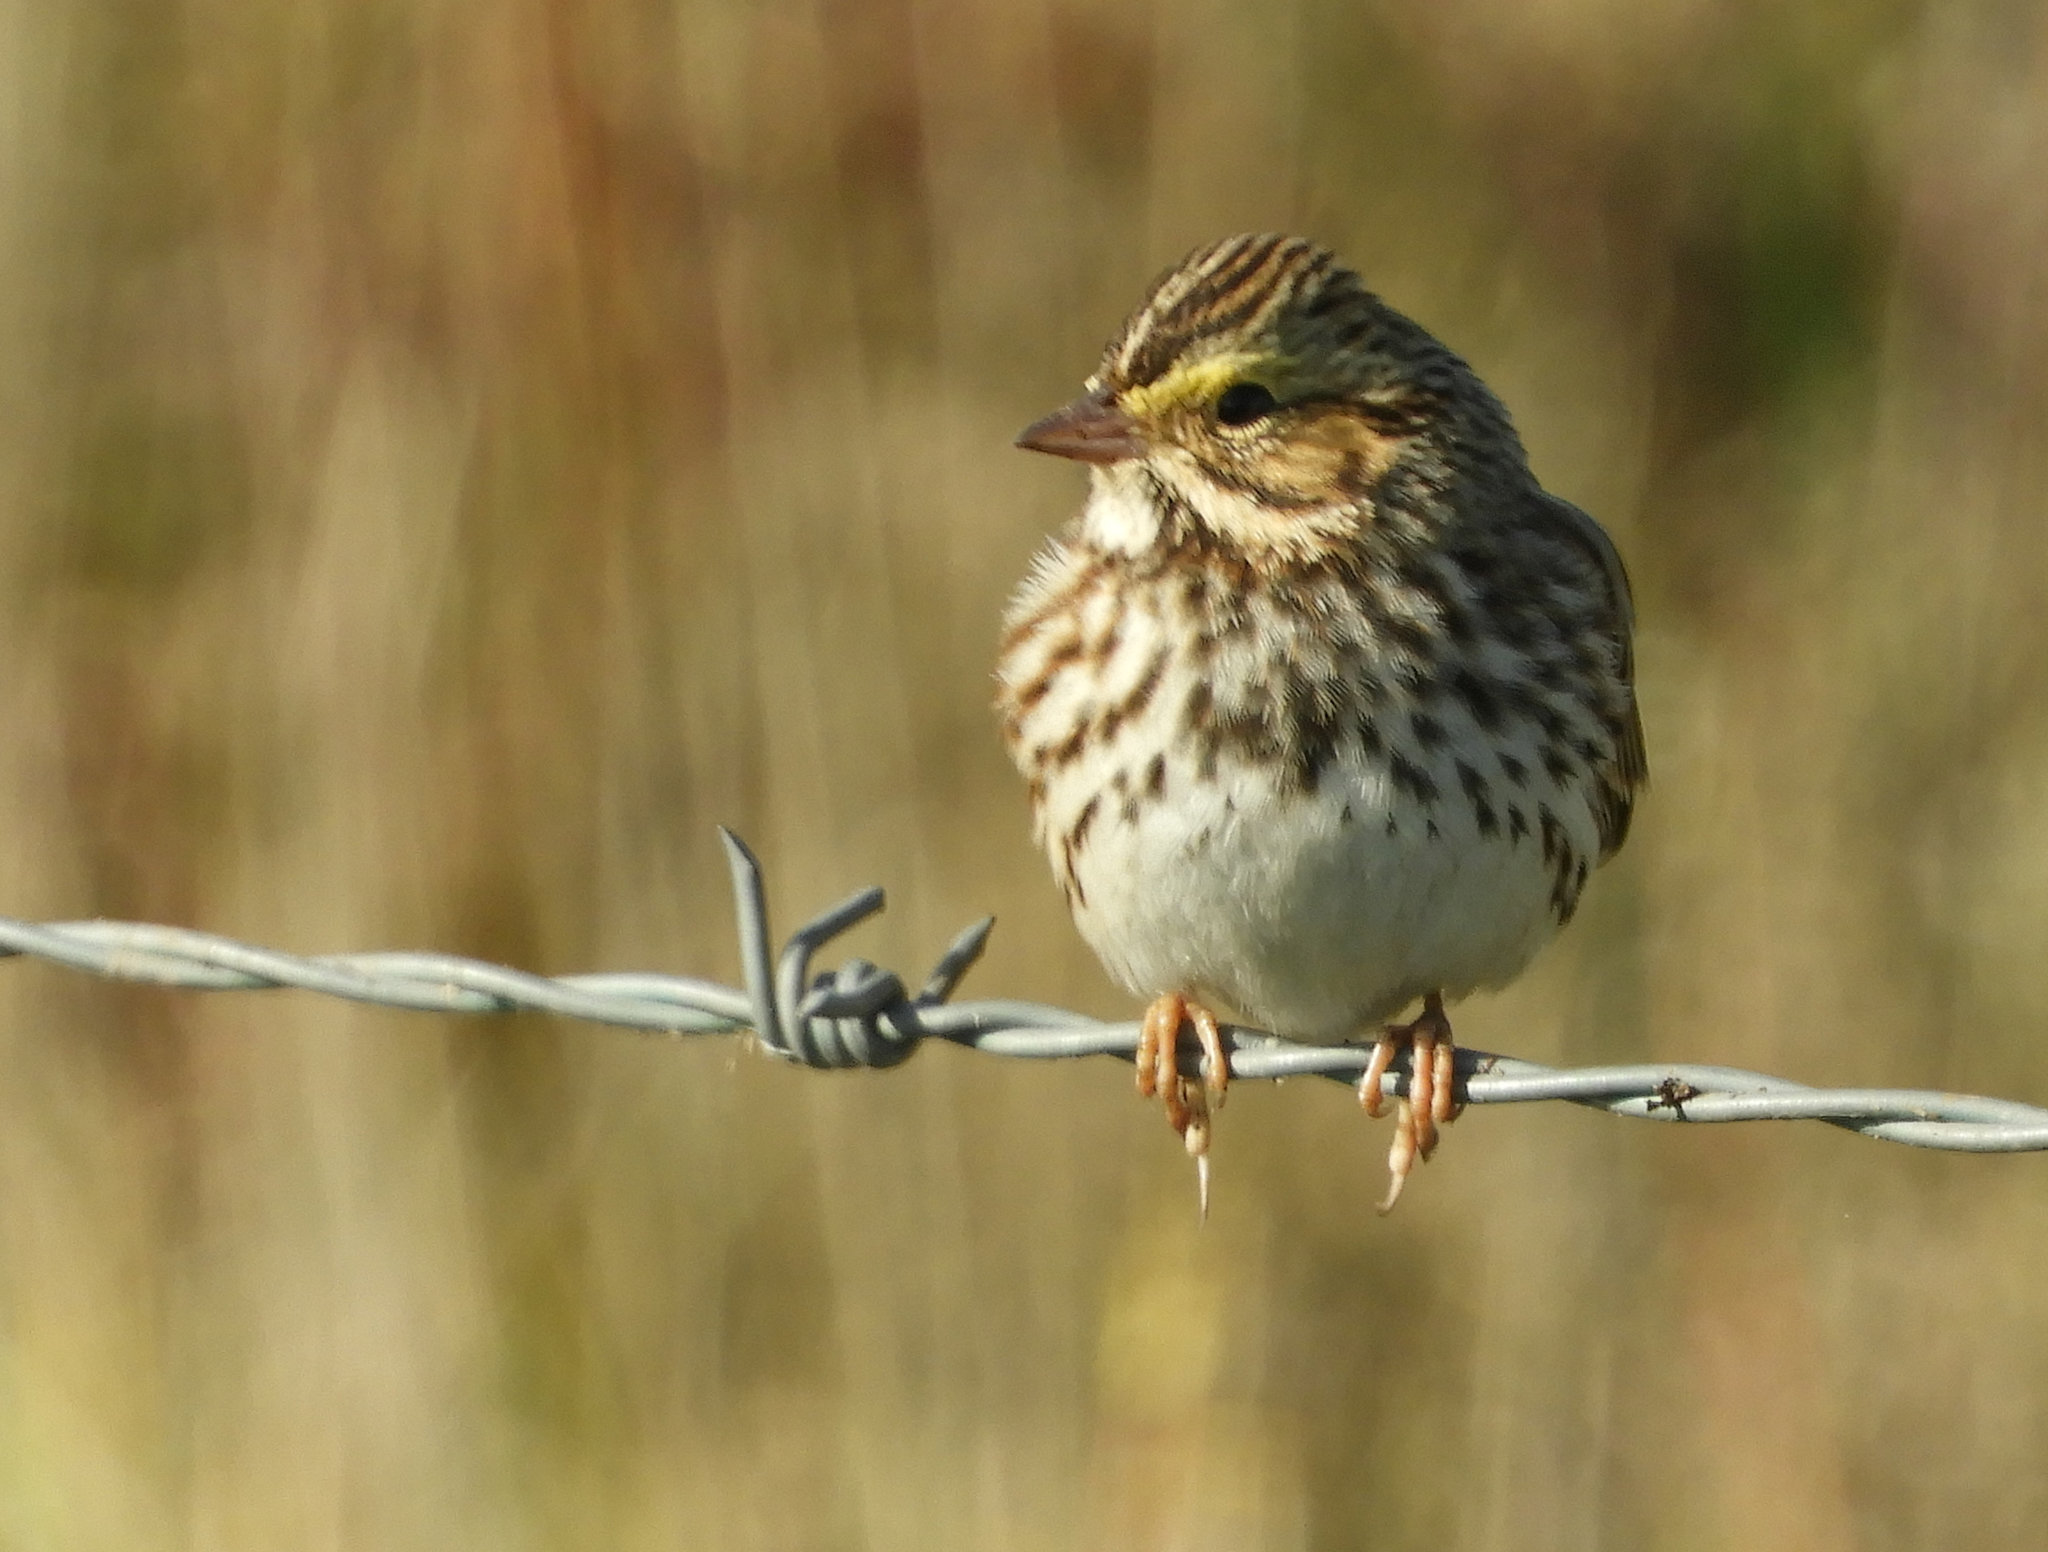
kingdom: Animalia
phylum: Chordata
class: Aves
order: Passeriformes
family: Passerellidae
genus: Passerculus
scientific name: Passerculus sandwichensis
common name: Savannah sparrow
